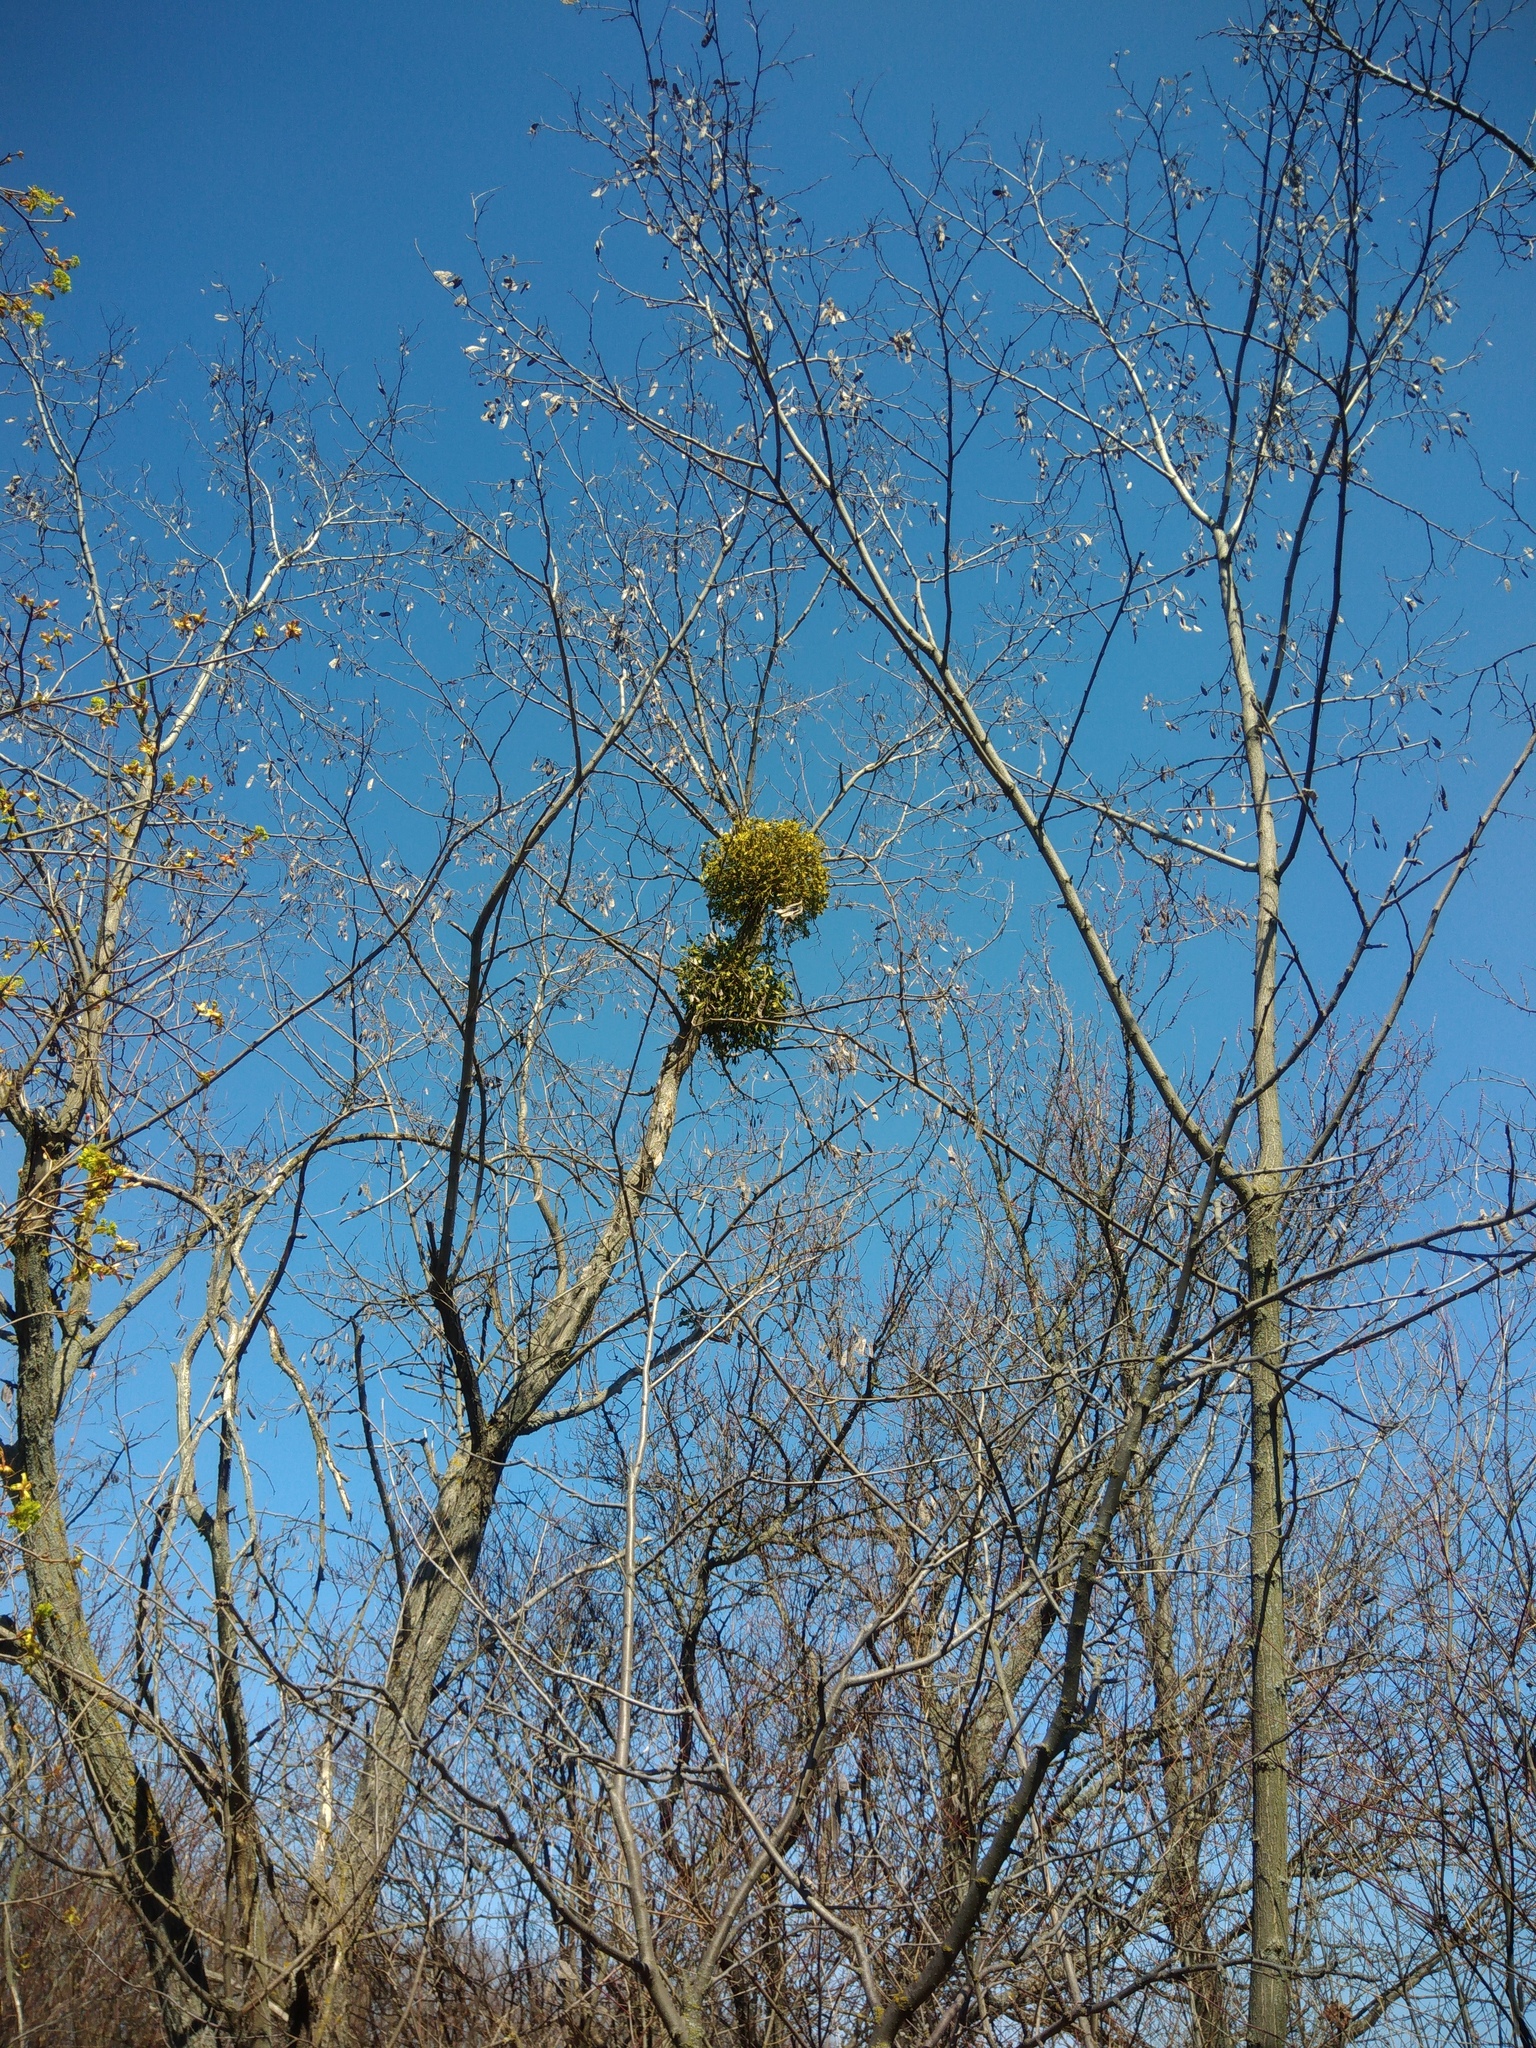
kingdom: Plantae
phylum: Tracheophyta
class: Magnoliopsida
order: Santalales
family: Viscaceae
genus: Viscum
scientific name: Viscum album
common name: Mistletoe
